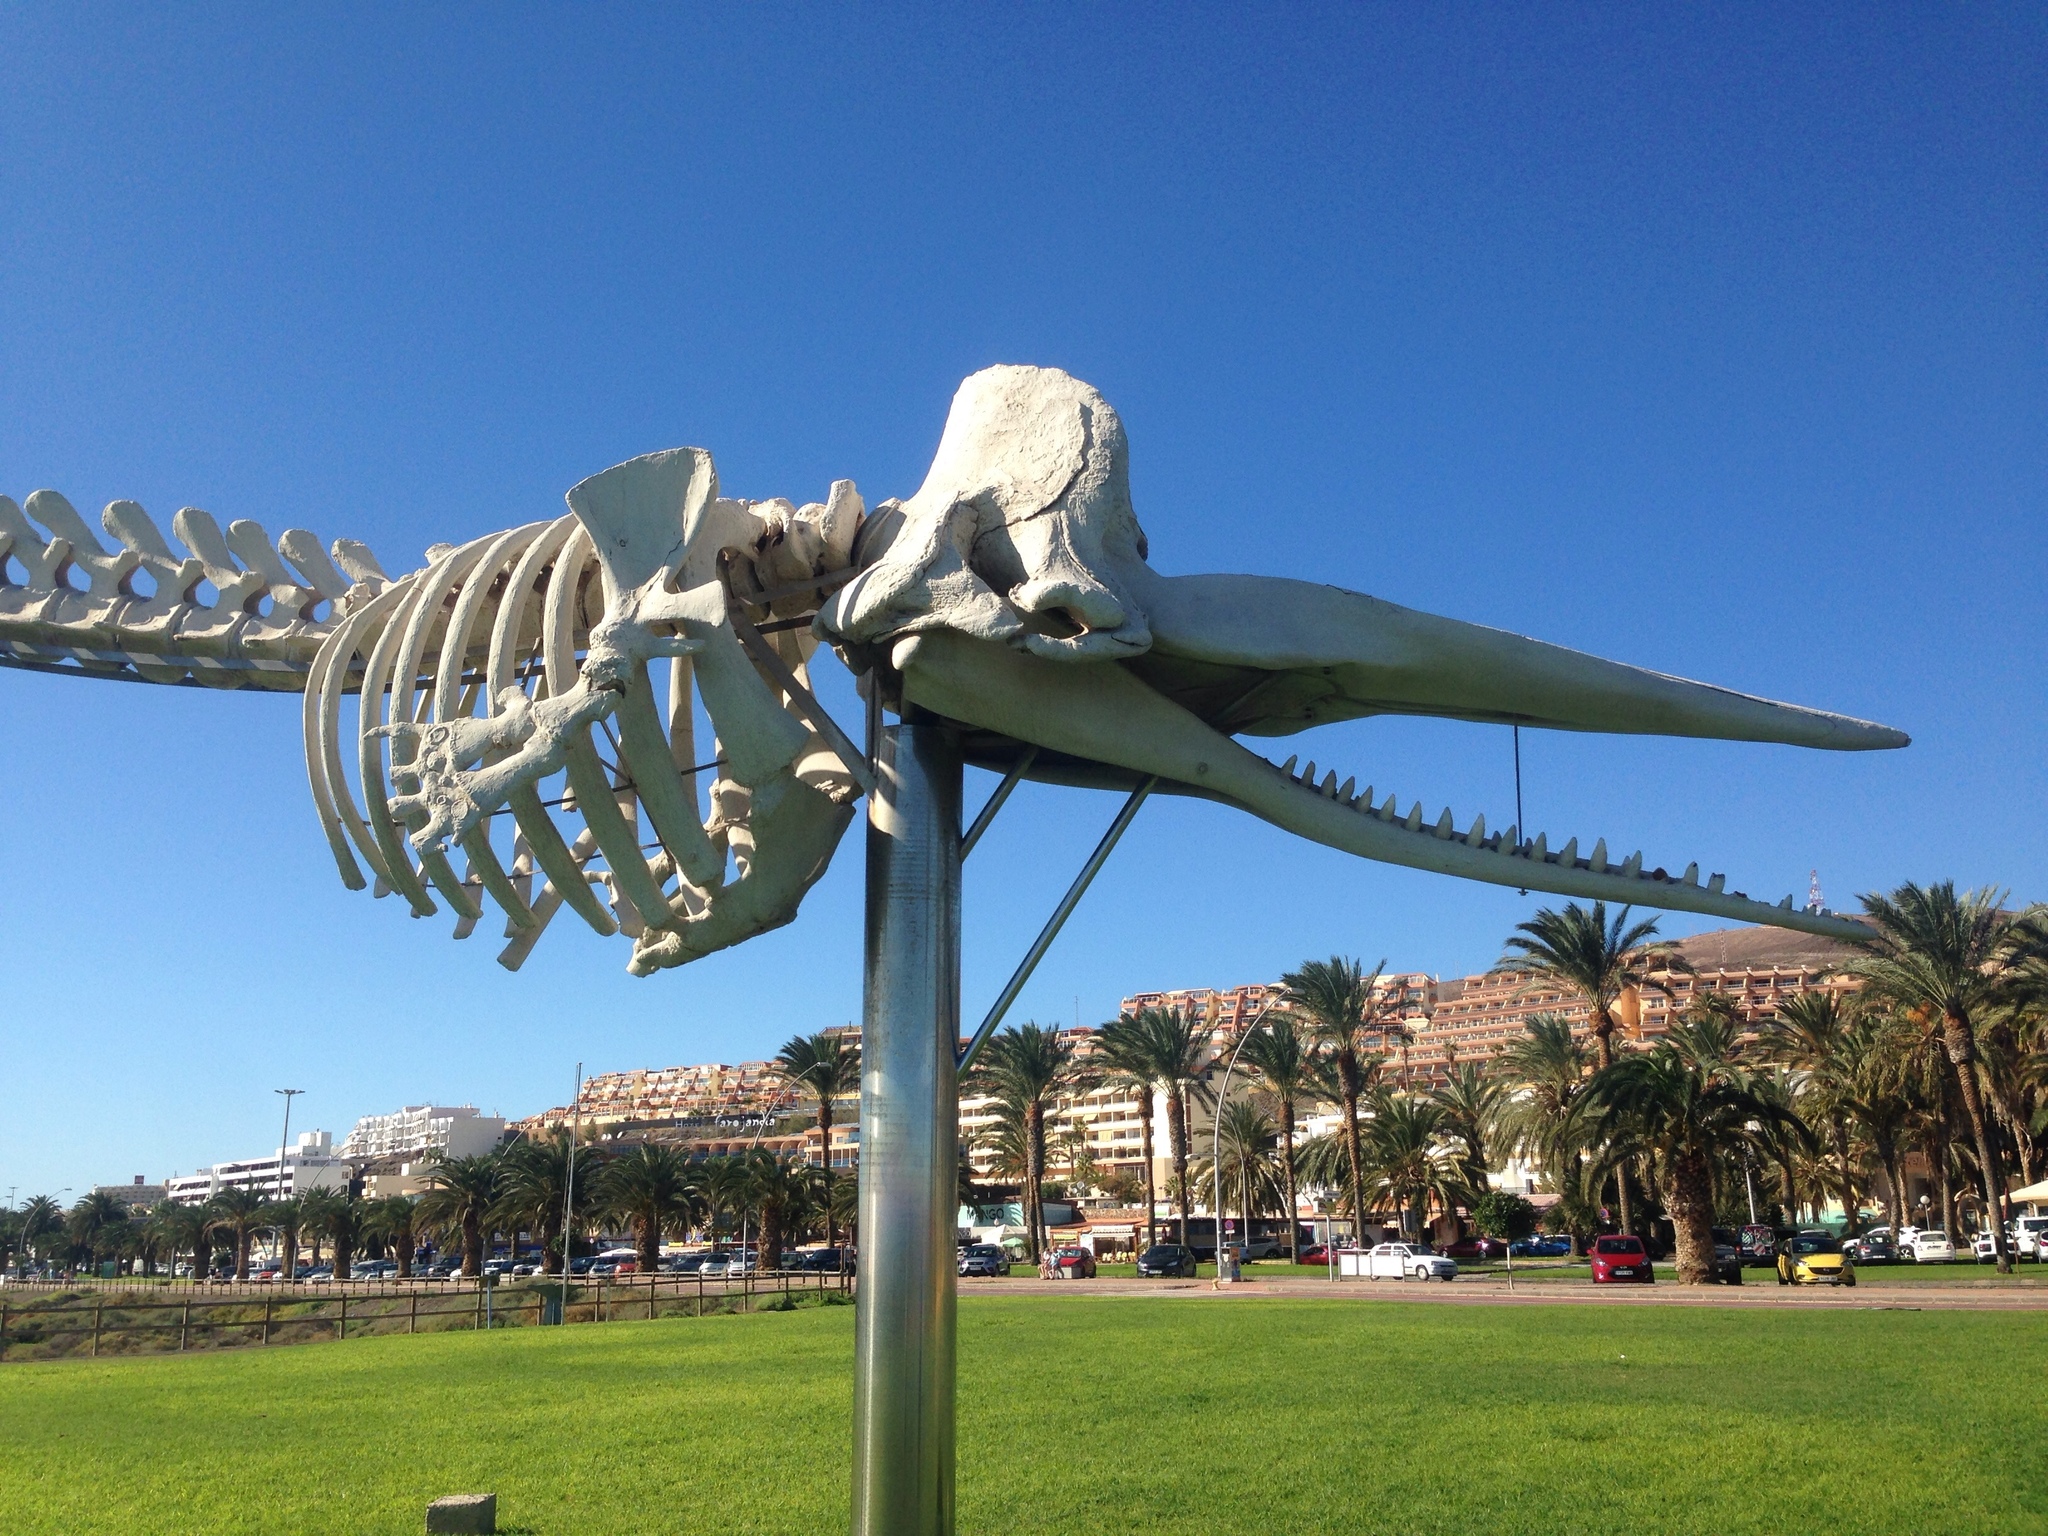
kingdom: Animalia
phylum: Chordata
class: Mammalia
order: Cetacea
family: Physeteridae
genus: Physeter
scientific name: Physeter macrocephalus
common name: Sperm whale
